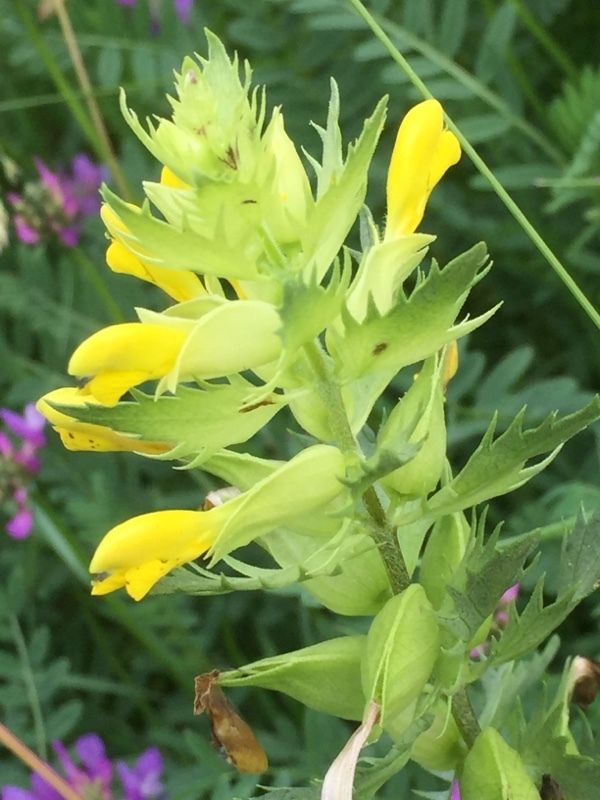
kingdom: Plantae
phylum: Tracheophyta
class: Magnoliopsida
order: Lamiales
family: Orobanchaceae
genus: Rhinanthus
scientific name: Rhinanthus serotinus
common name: Late-flowering yellow rattle
